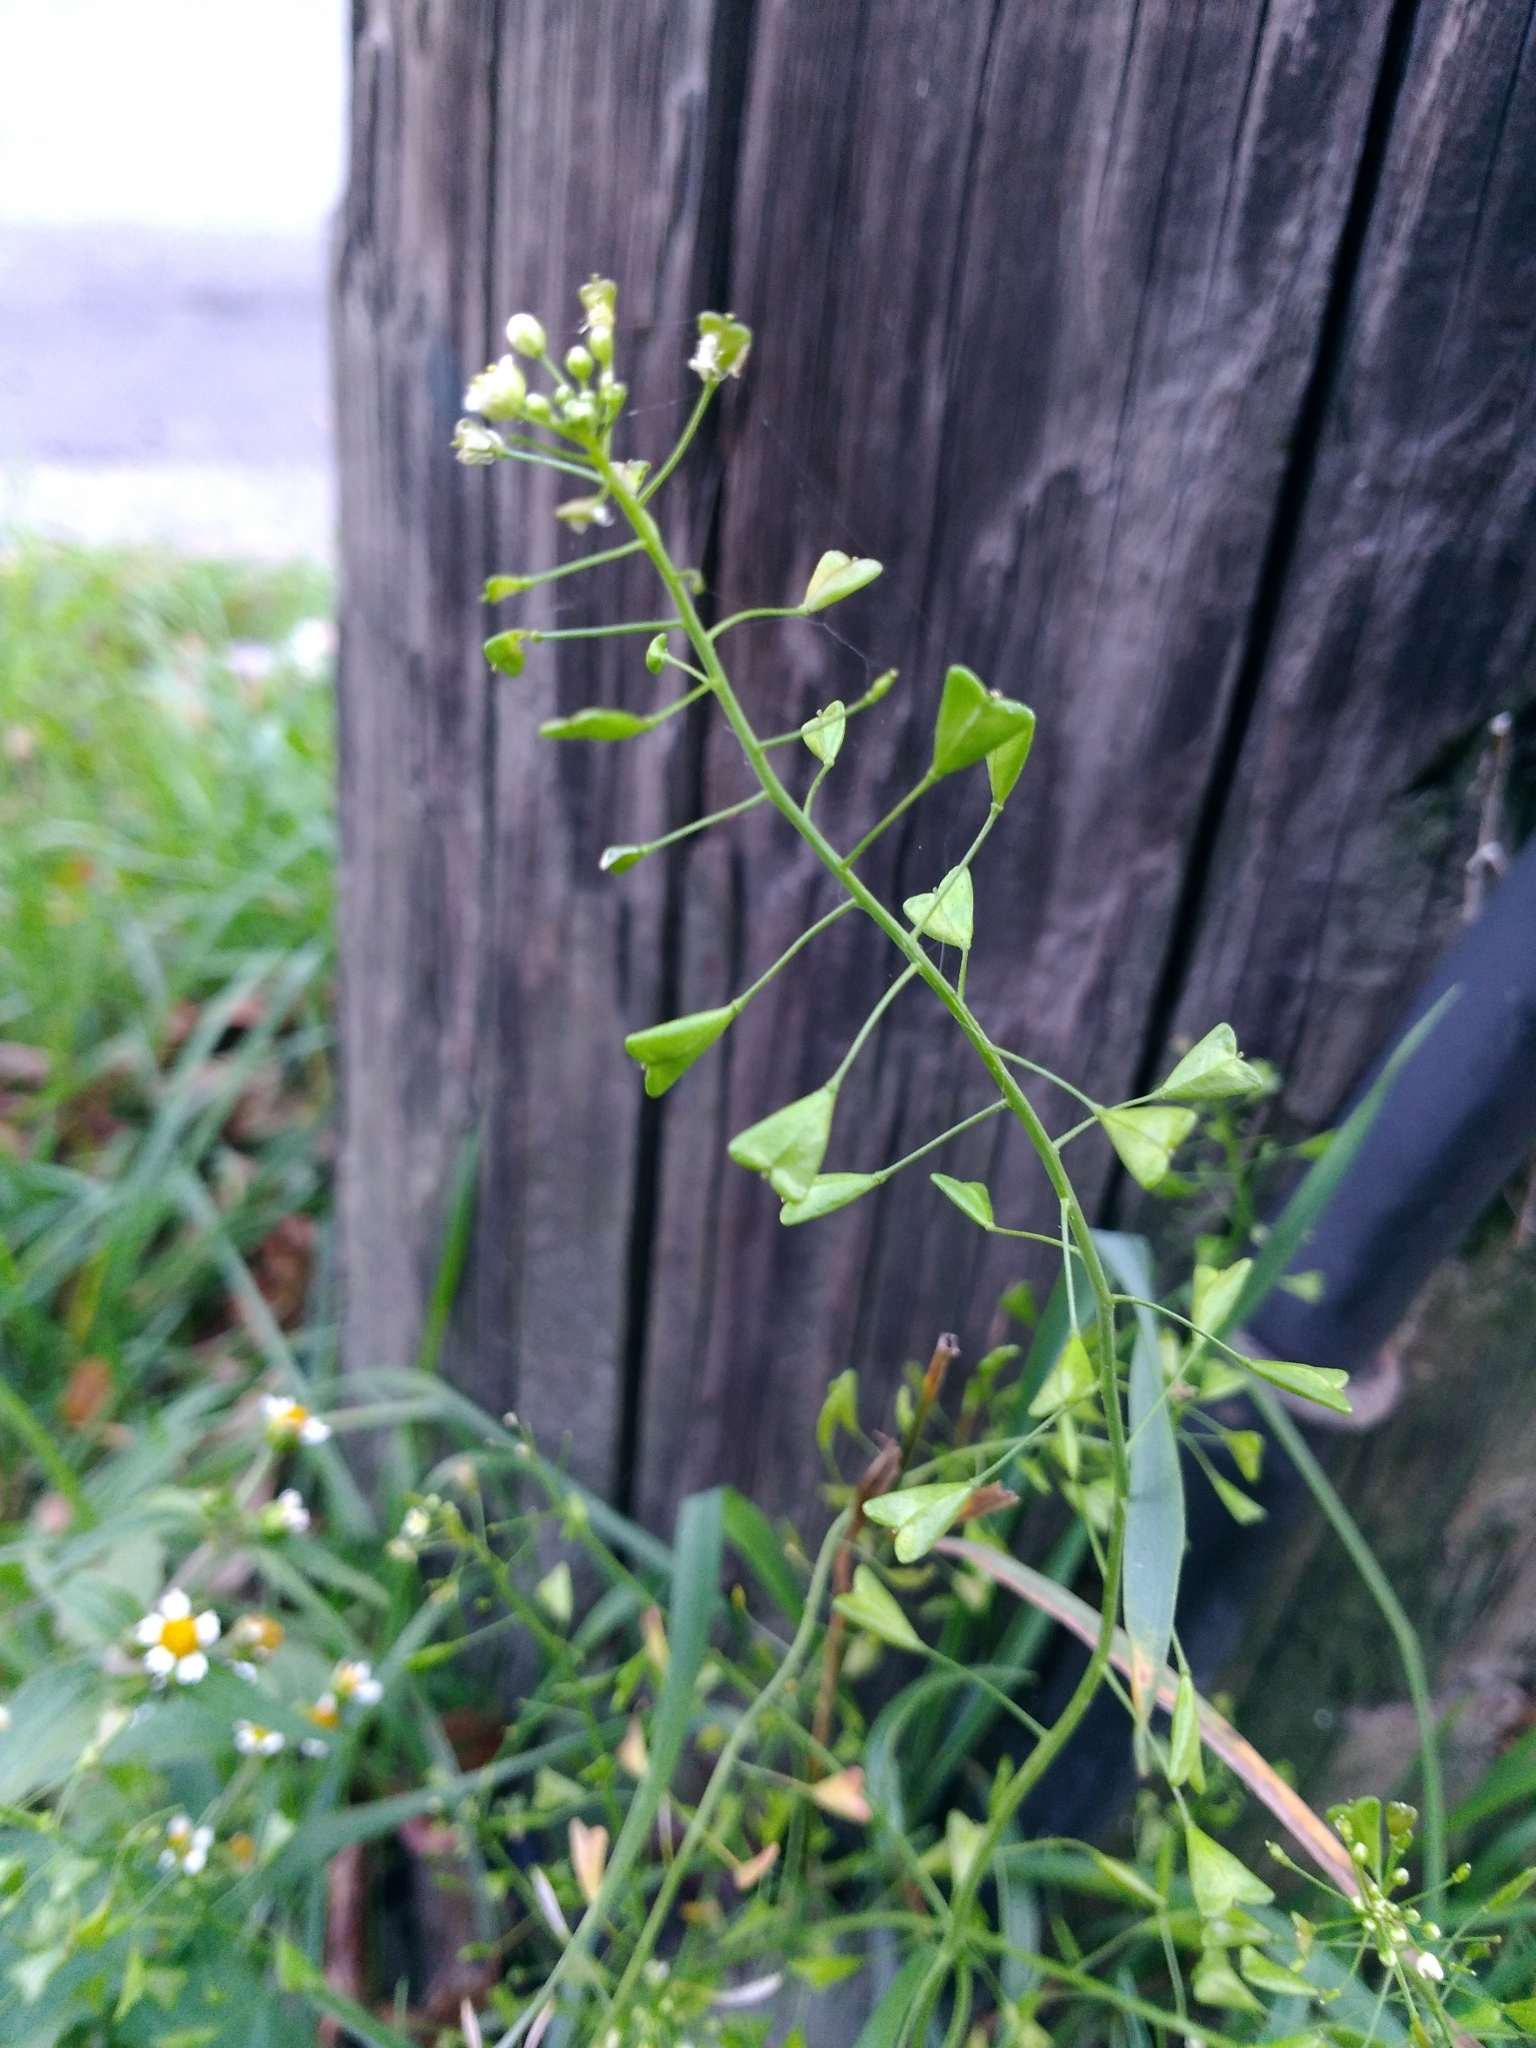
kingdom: Plantae
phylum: Tracheophyta
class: Magnoliopsida
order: Brassicales
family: Brassicaceae
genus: Capsella
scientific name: Capsella bursa-pastoris
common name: Shepherd's purse
